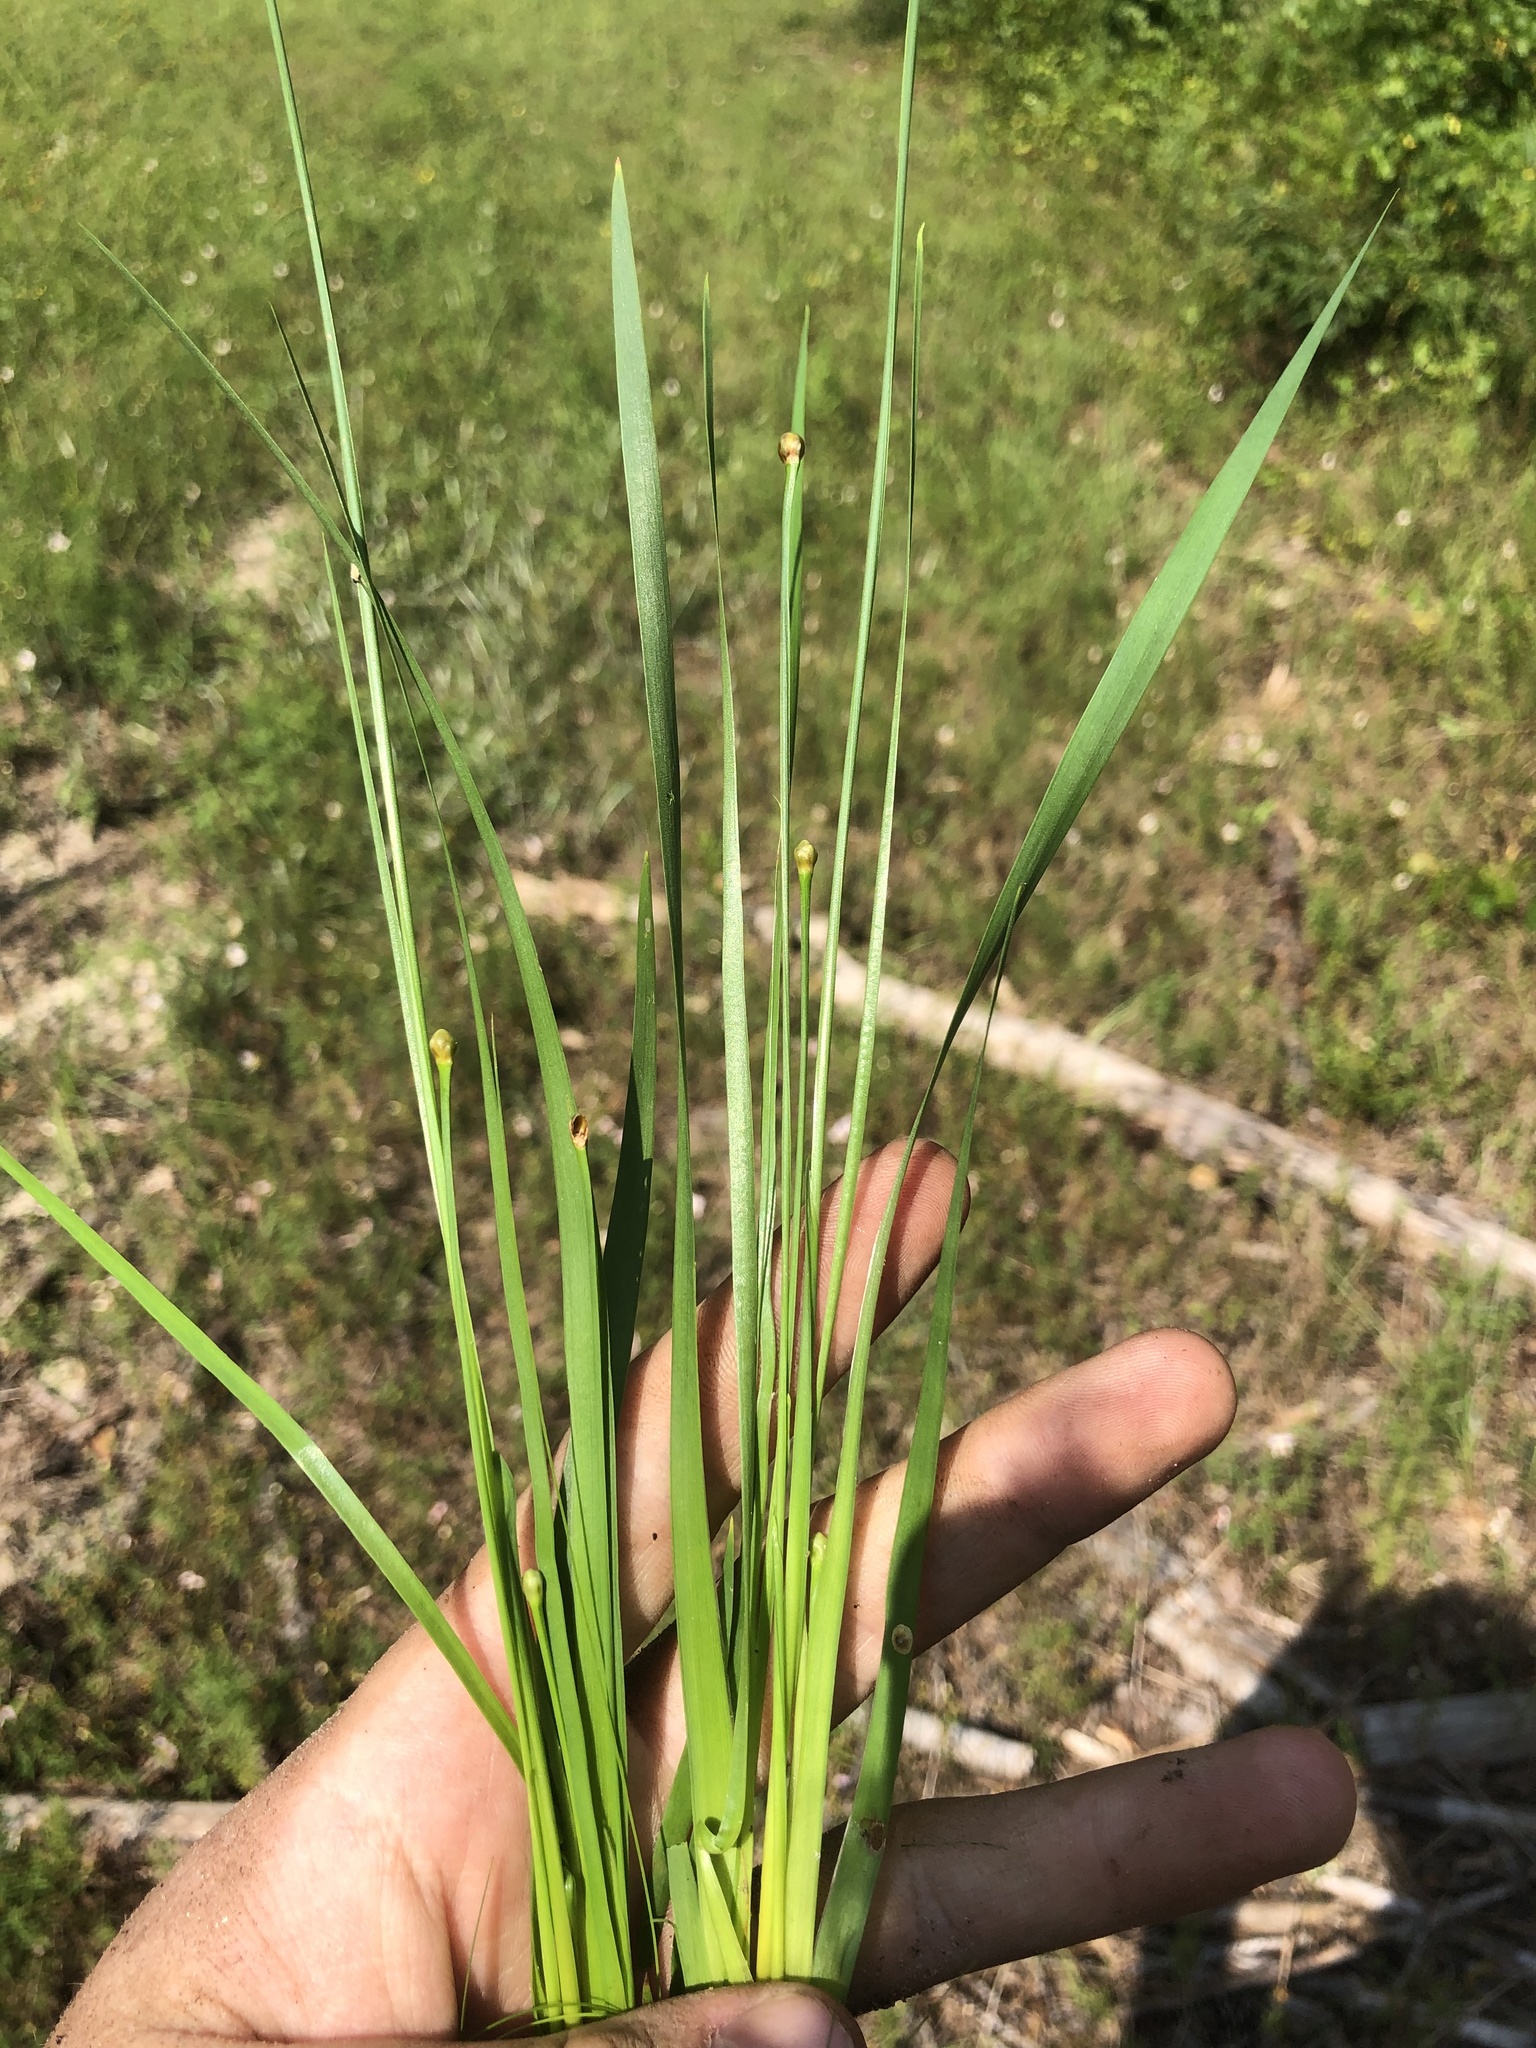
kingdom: Plantae
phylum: Tracheophyta
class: Liliopsida
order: Poales
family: Xyridaceae
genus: Xyris
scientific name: Xyris jupicai
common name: Richard's yelloweyed grass
